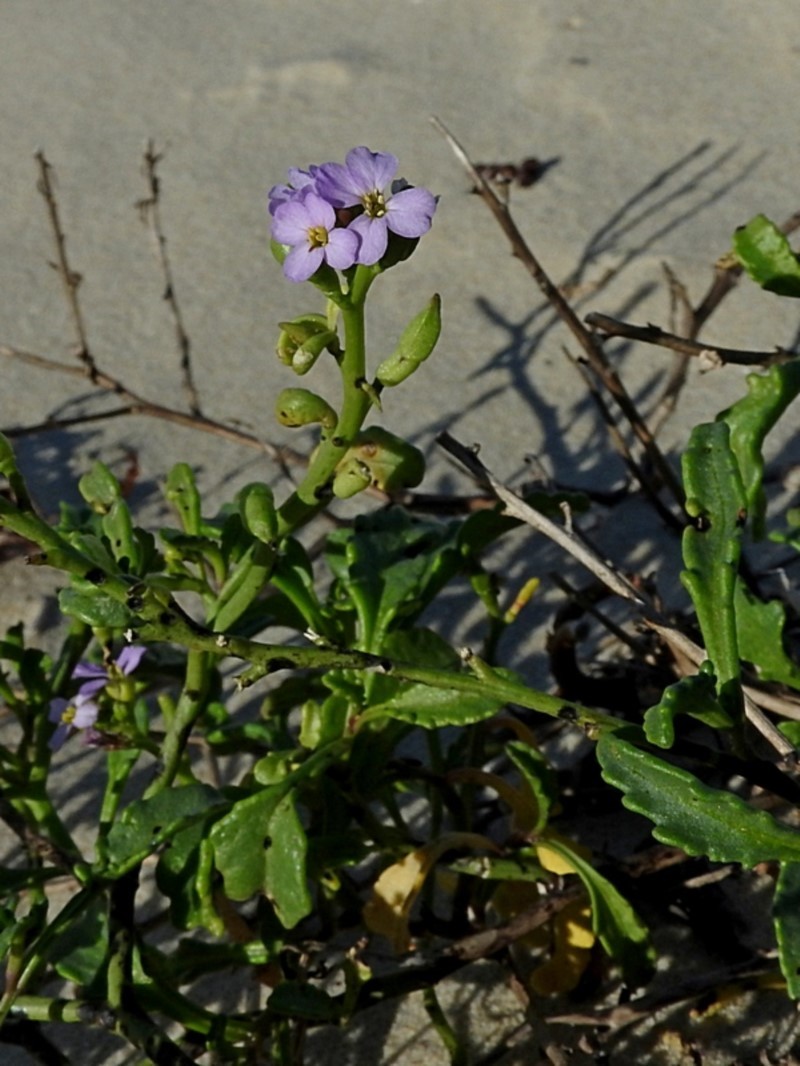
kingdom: Plantae
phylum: Tracheophyta
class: Magnoliopsida
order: Brassicales
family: Brassicaceae
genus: Cakile
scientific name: Cakile maritima
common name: Sea rocket
